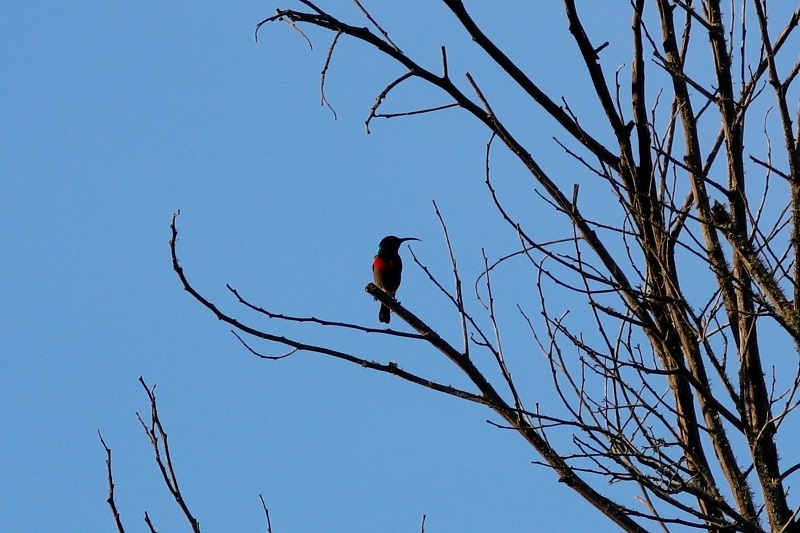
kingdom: Animalia
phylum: Chordata
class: Aves
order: Passeriformes
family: Nectariniidae
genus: Cinnyris
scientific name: Cinnyris chalybeus
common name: Southern double-collared sunbird
